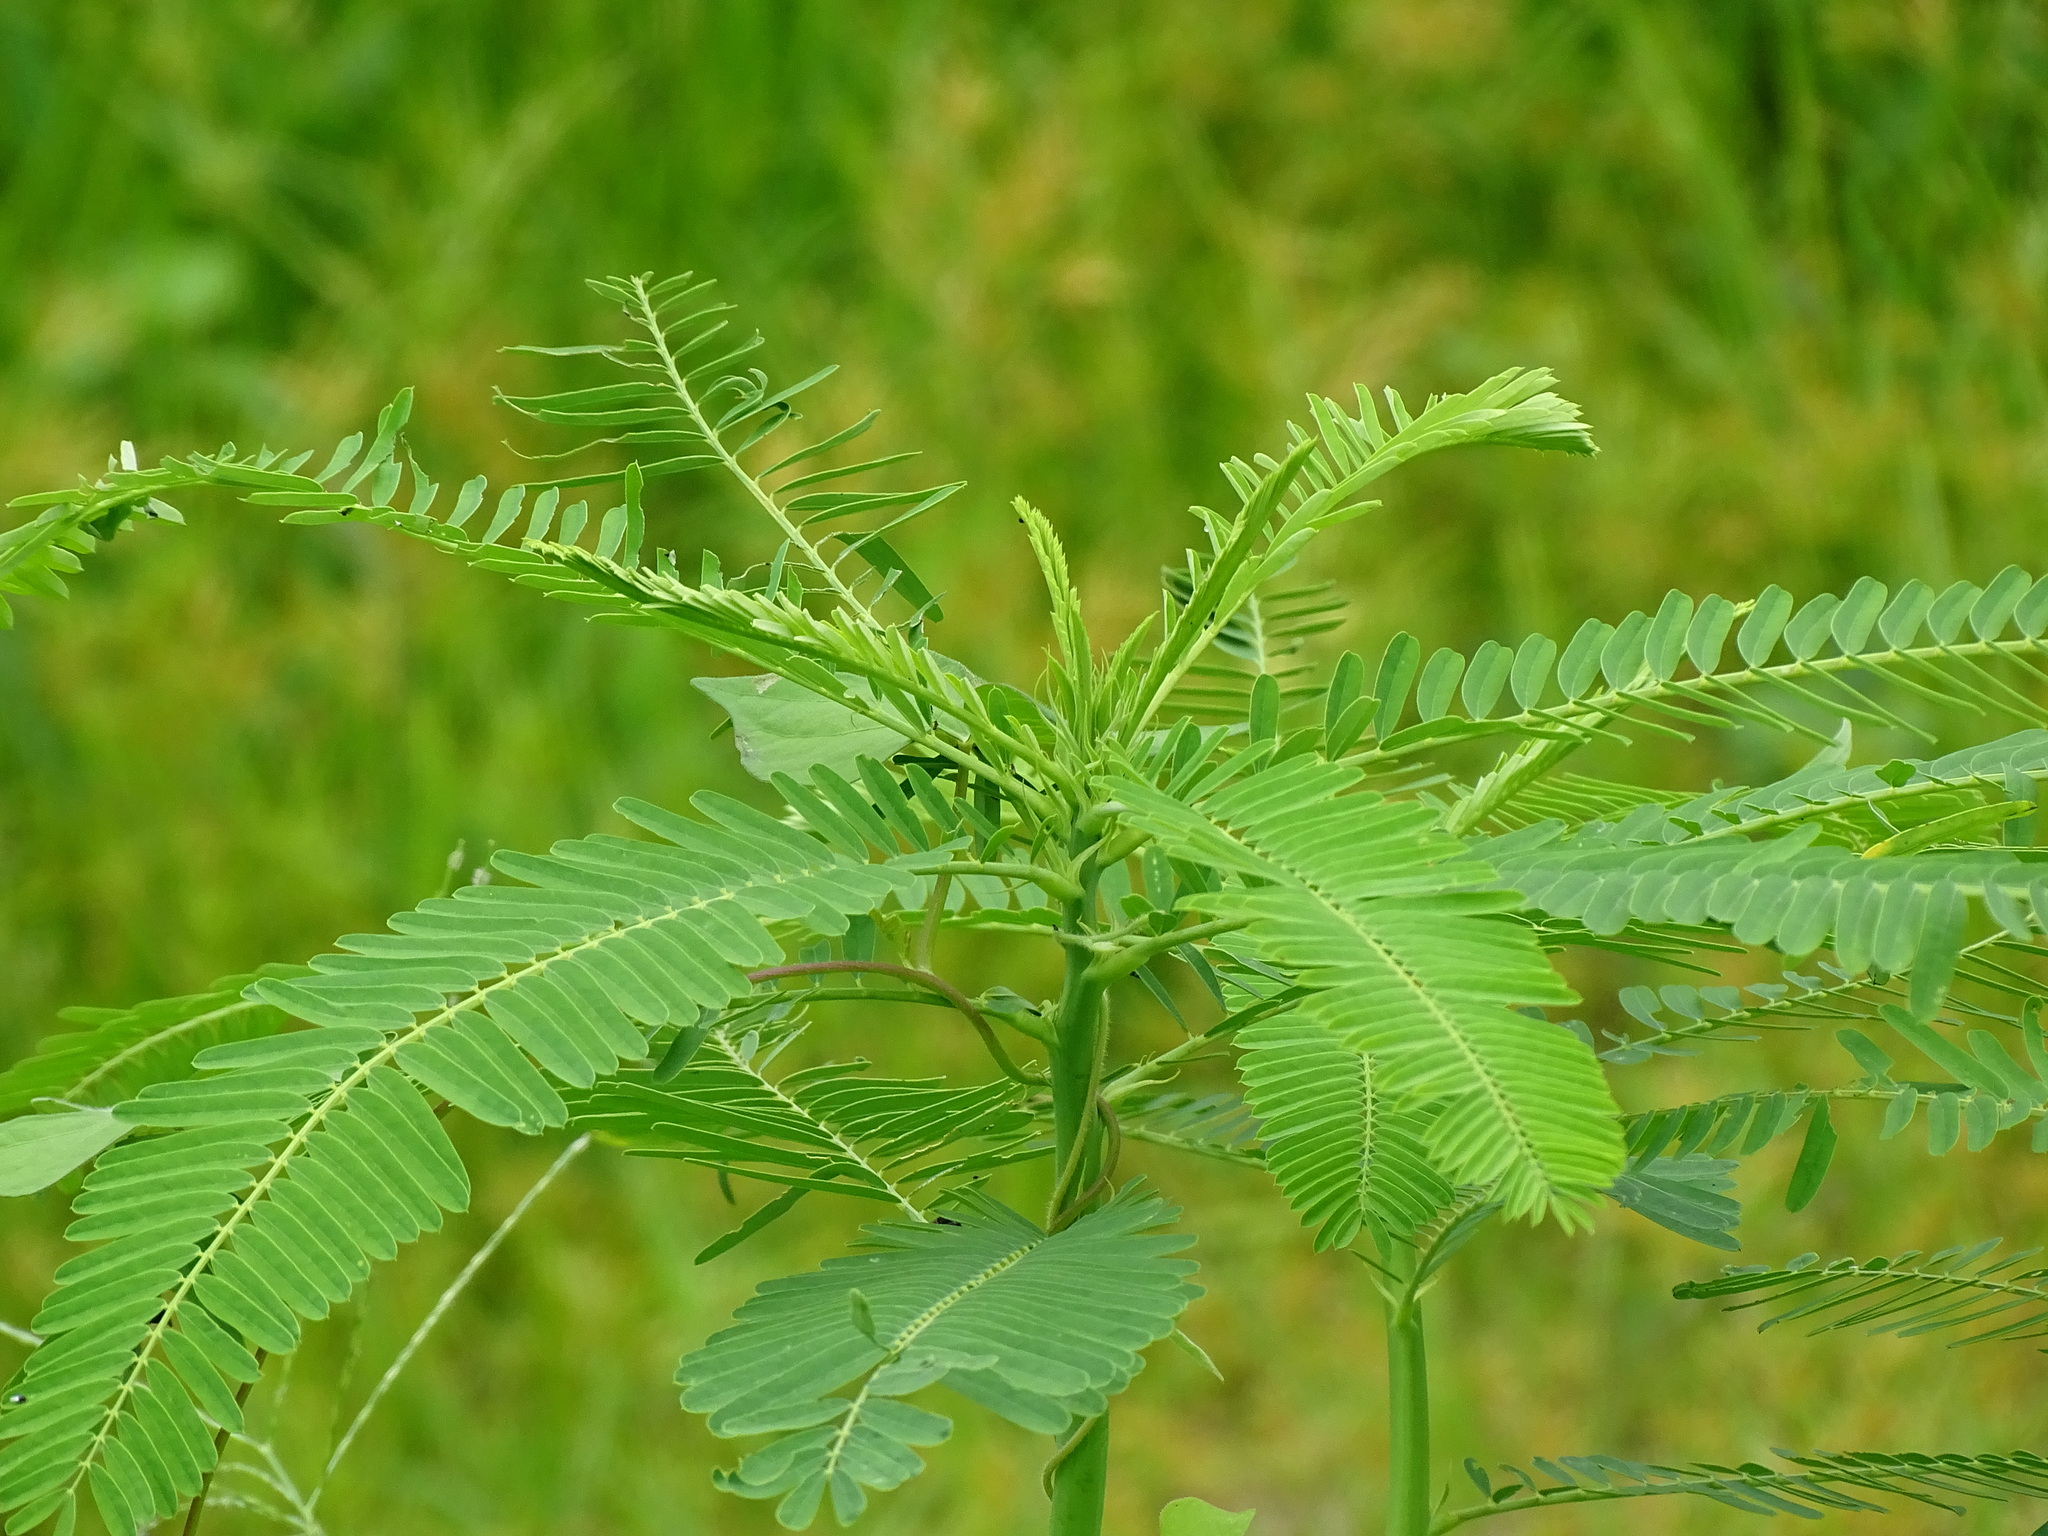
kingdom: Plantae
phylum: Tracheophyta
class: Magnoliopsida
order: Fabales
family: Fabaceae
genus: Sesbania
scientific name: Sesbania herbacea
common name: Bigpod sesbania
